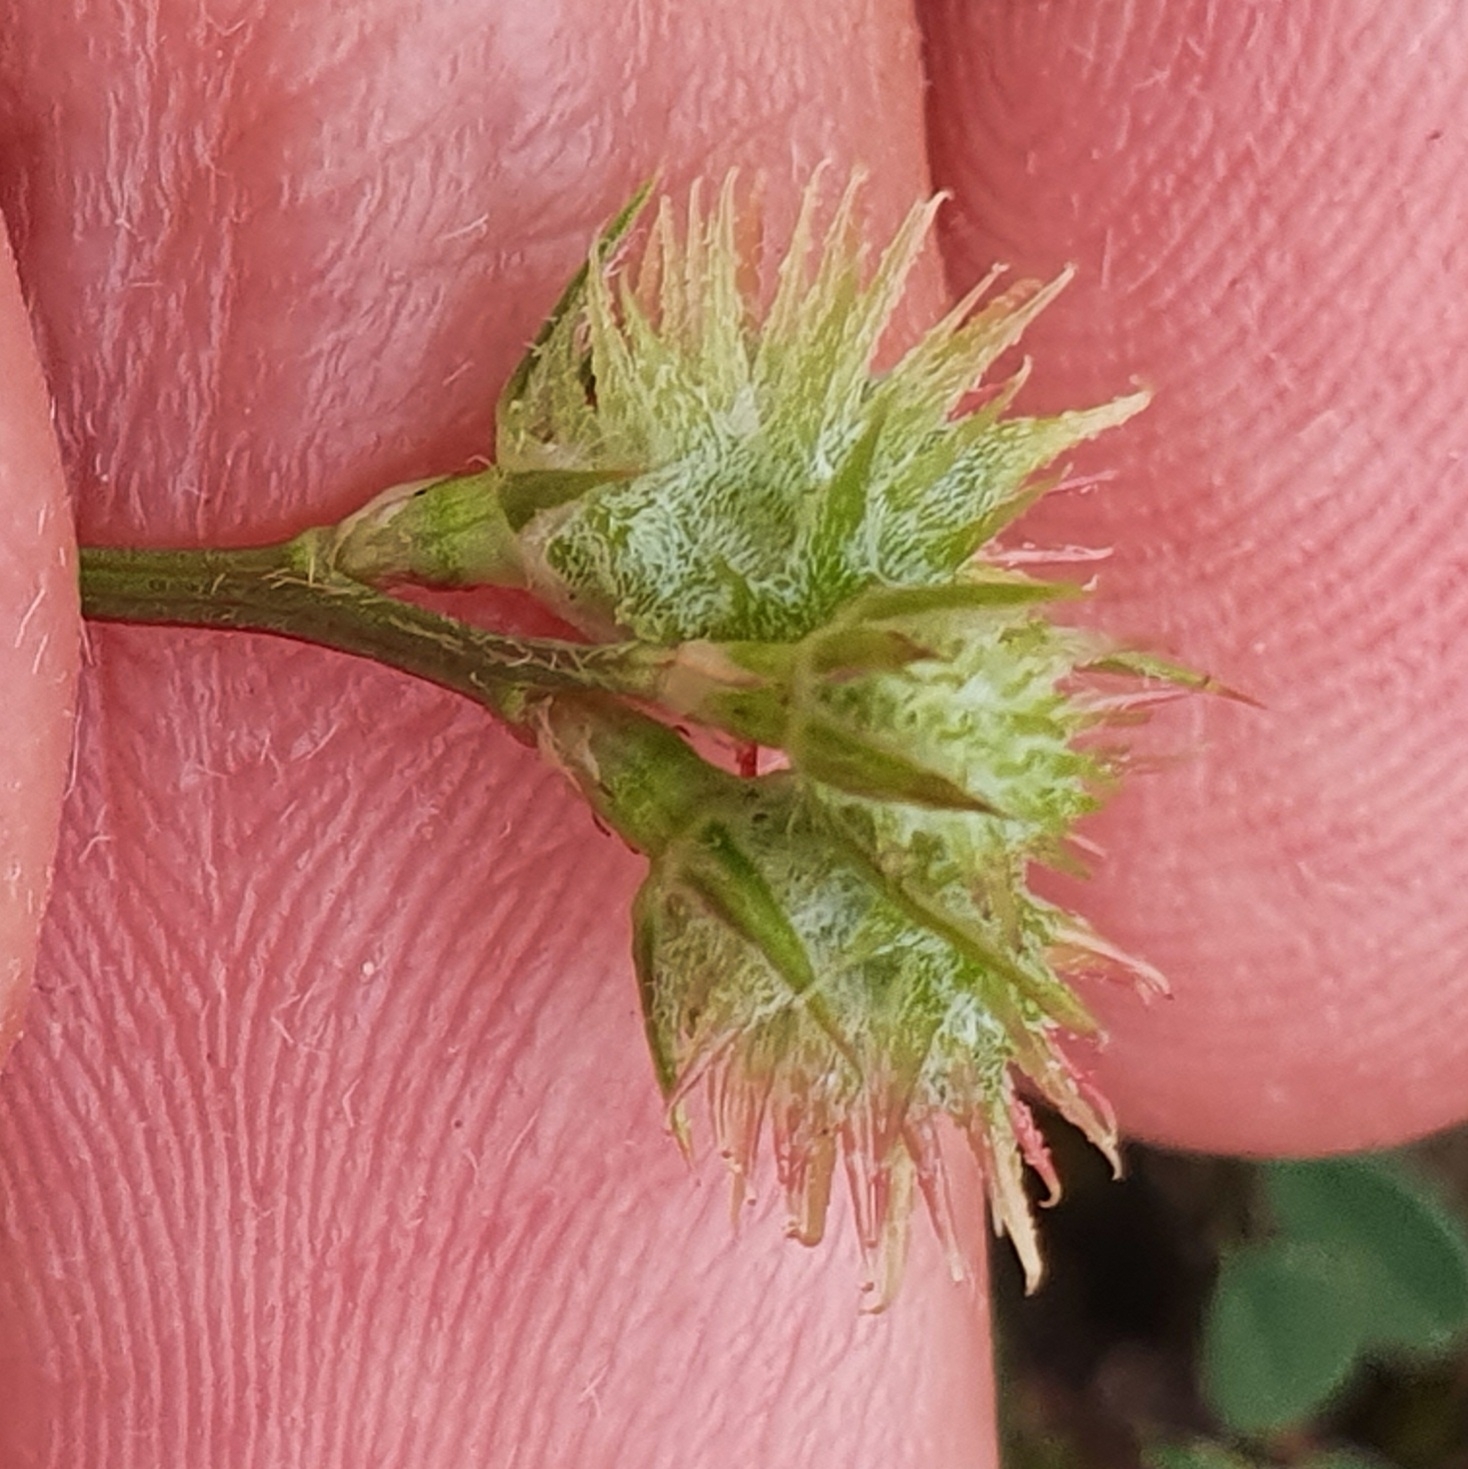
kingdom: Plantae
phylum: Tracheophyta
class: Magnoliopsida
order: Fabales
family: Fabaceae
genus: Onobrychis
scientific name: Onobrychis caput-galli
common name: Cockscomb sainfoin
